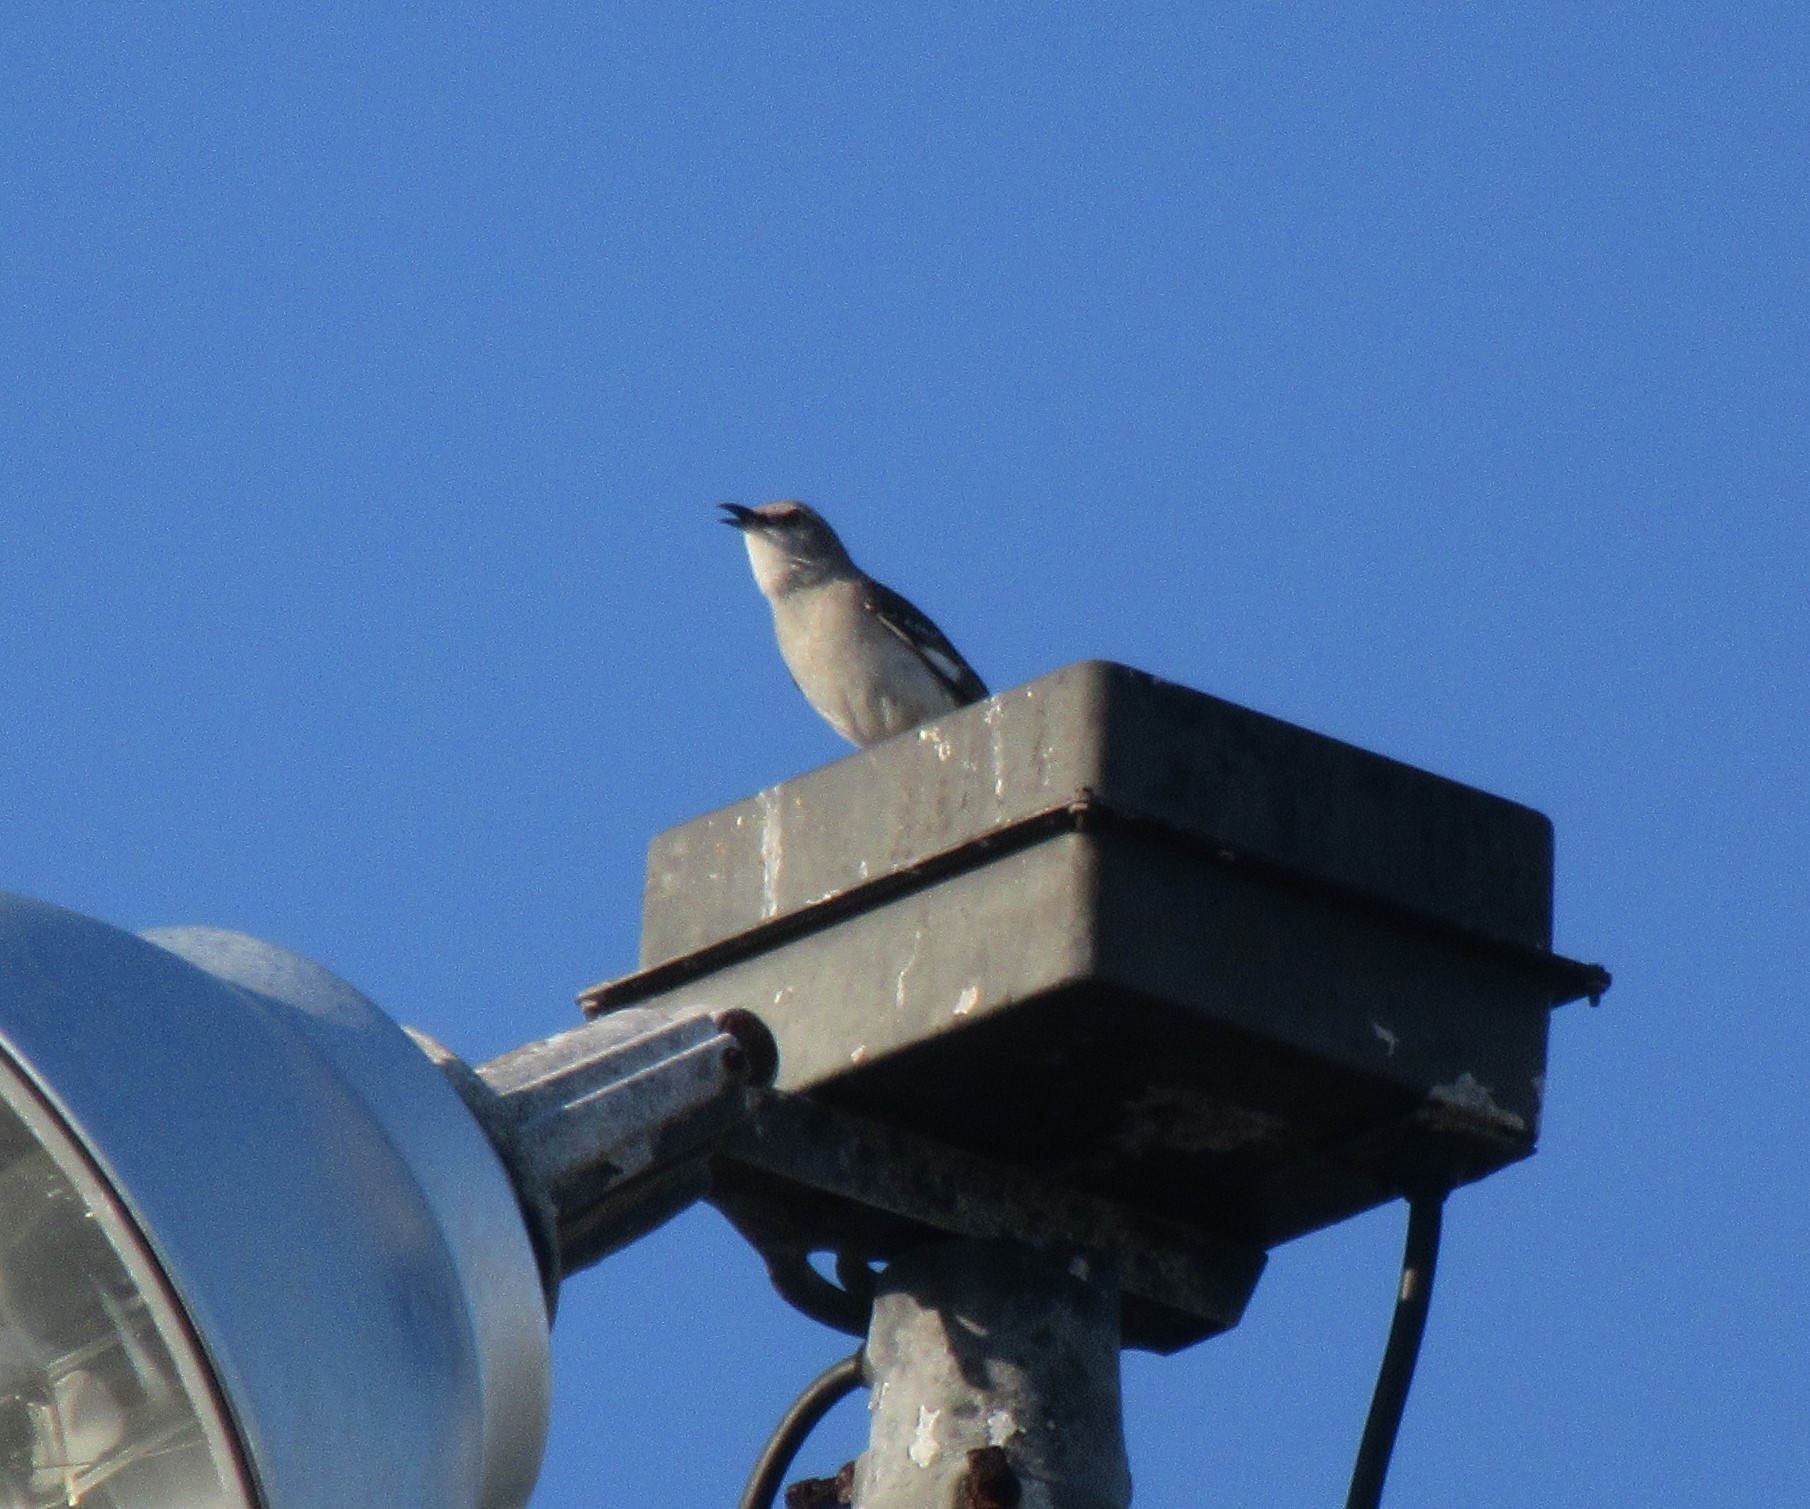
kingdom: Animalia
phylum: Chordata
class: Aves
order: Passeriformes
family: Mimidae
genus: Mimus
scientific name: Mimus polyglottos
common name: Northern mockingbird
